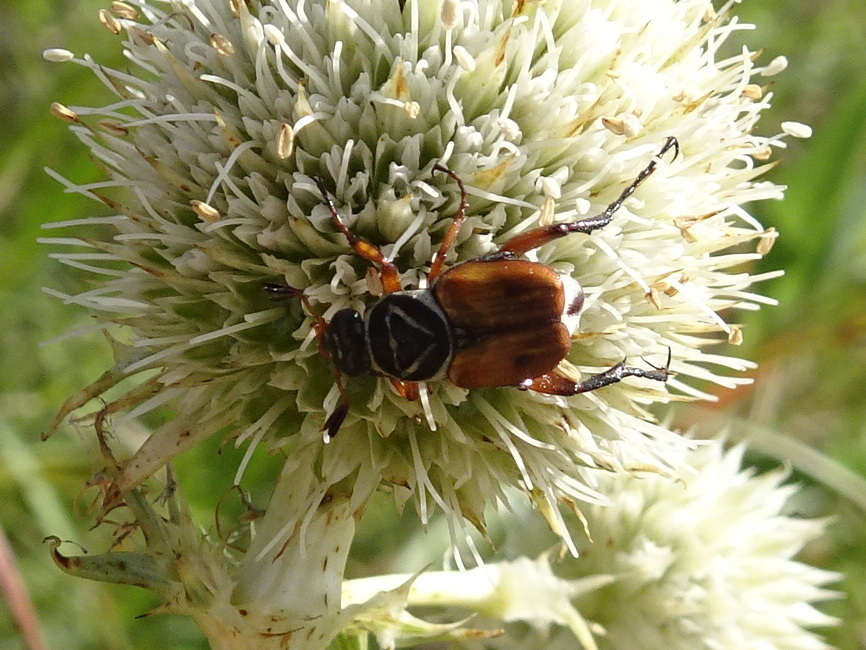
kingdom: Animalia
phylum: Arthropoda
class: Insecta
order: Coleoptera
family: Scarabaeidae
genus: Trigonopeltastes
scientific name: Trigonopeltastes delta
